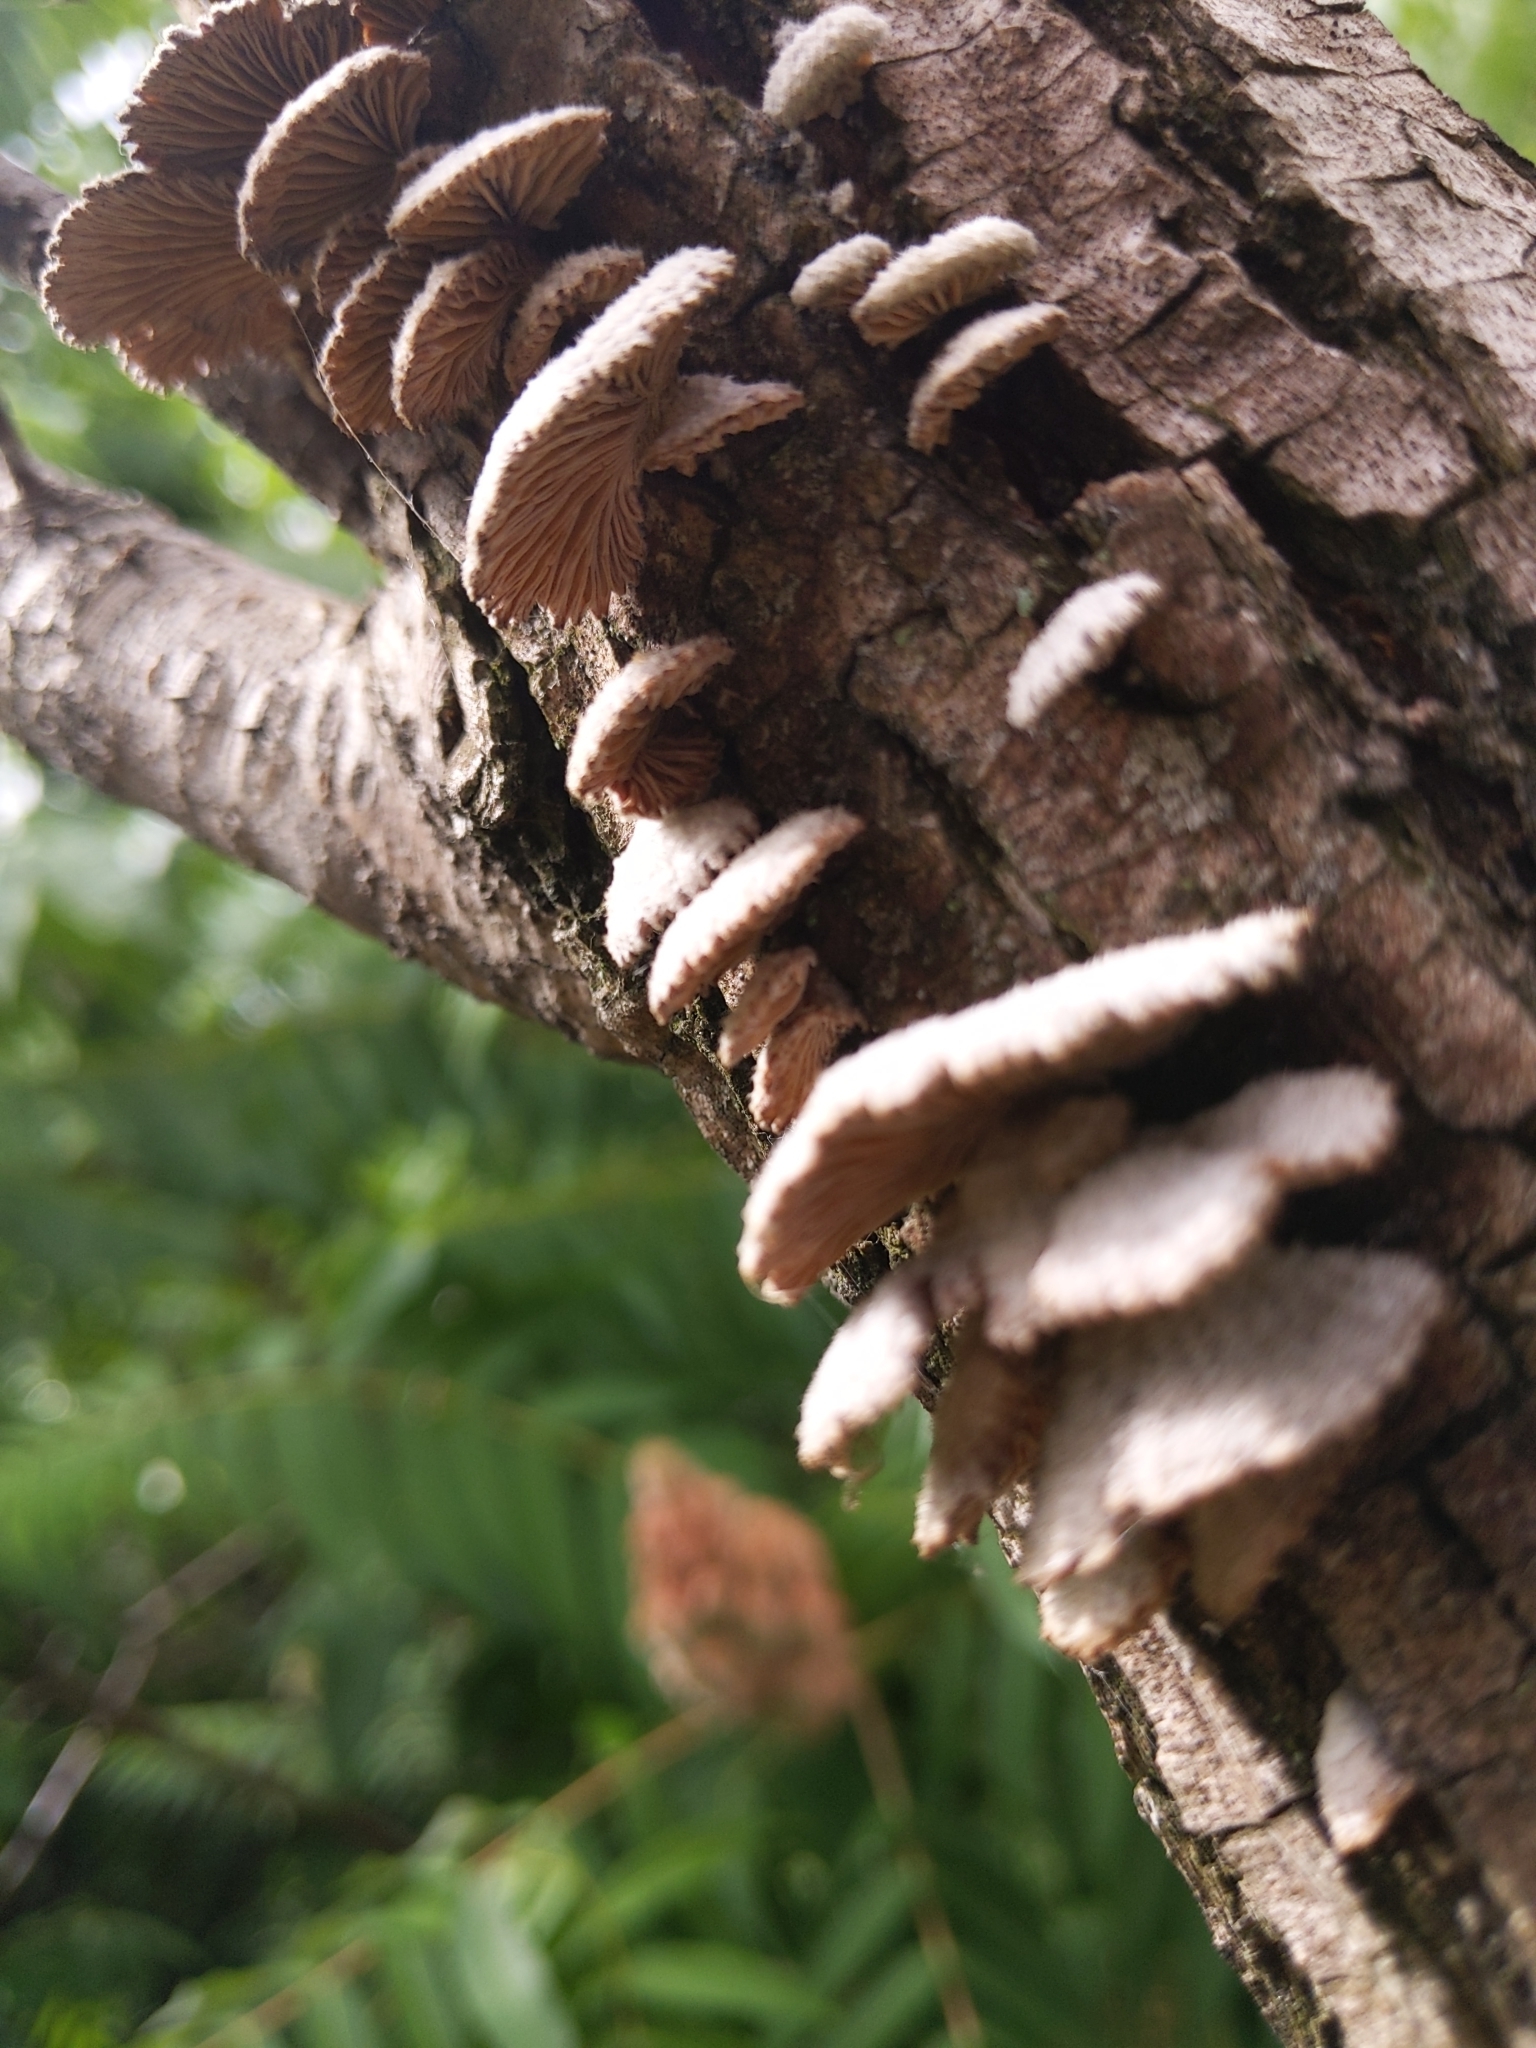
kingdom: Fungi
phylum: Basidiomycota
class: Agaricomycetes
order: Agaricales
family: Schizophyllaceae
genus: Schizophyllum
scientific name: Schizophyllum commune
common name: Common porecrust
